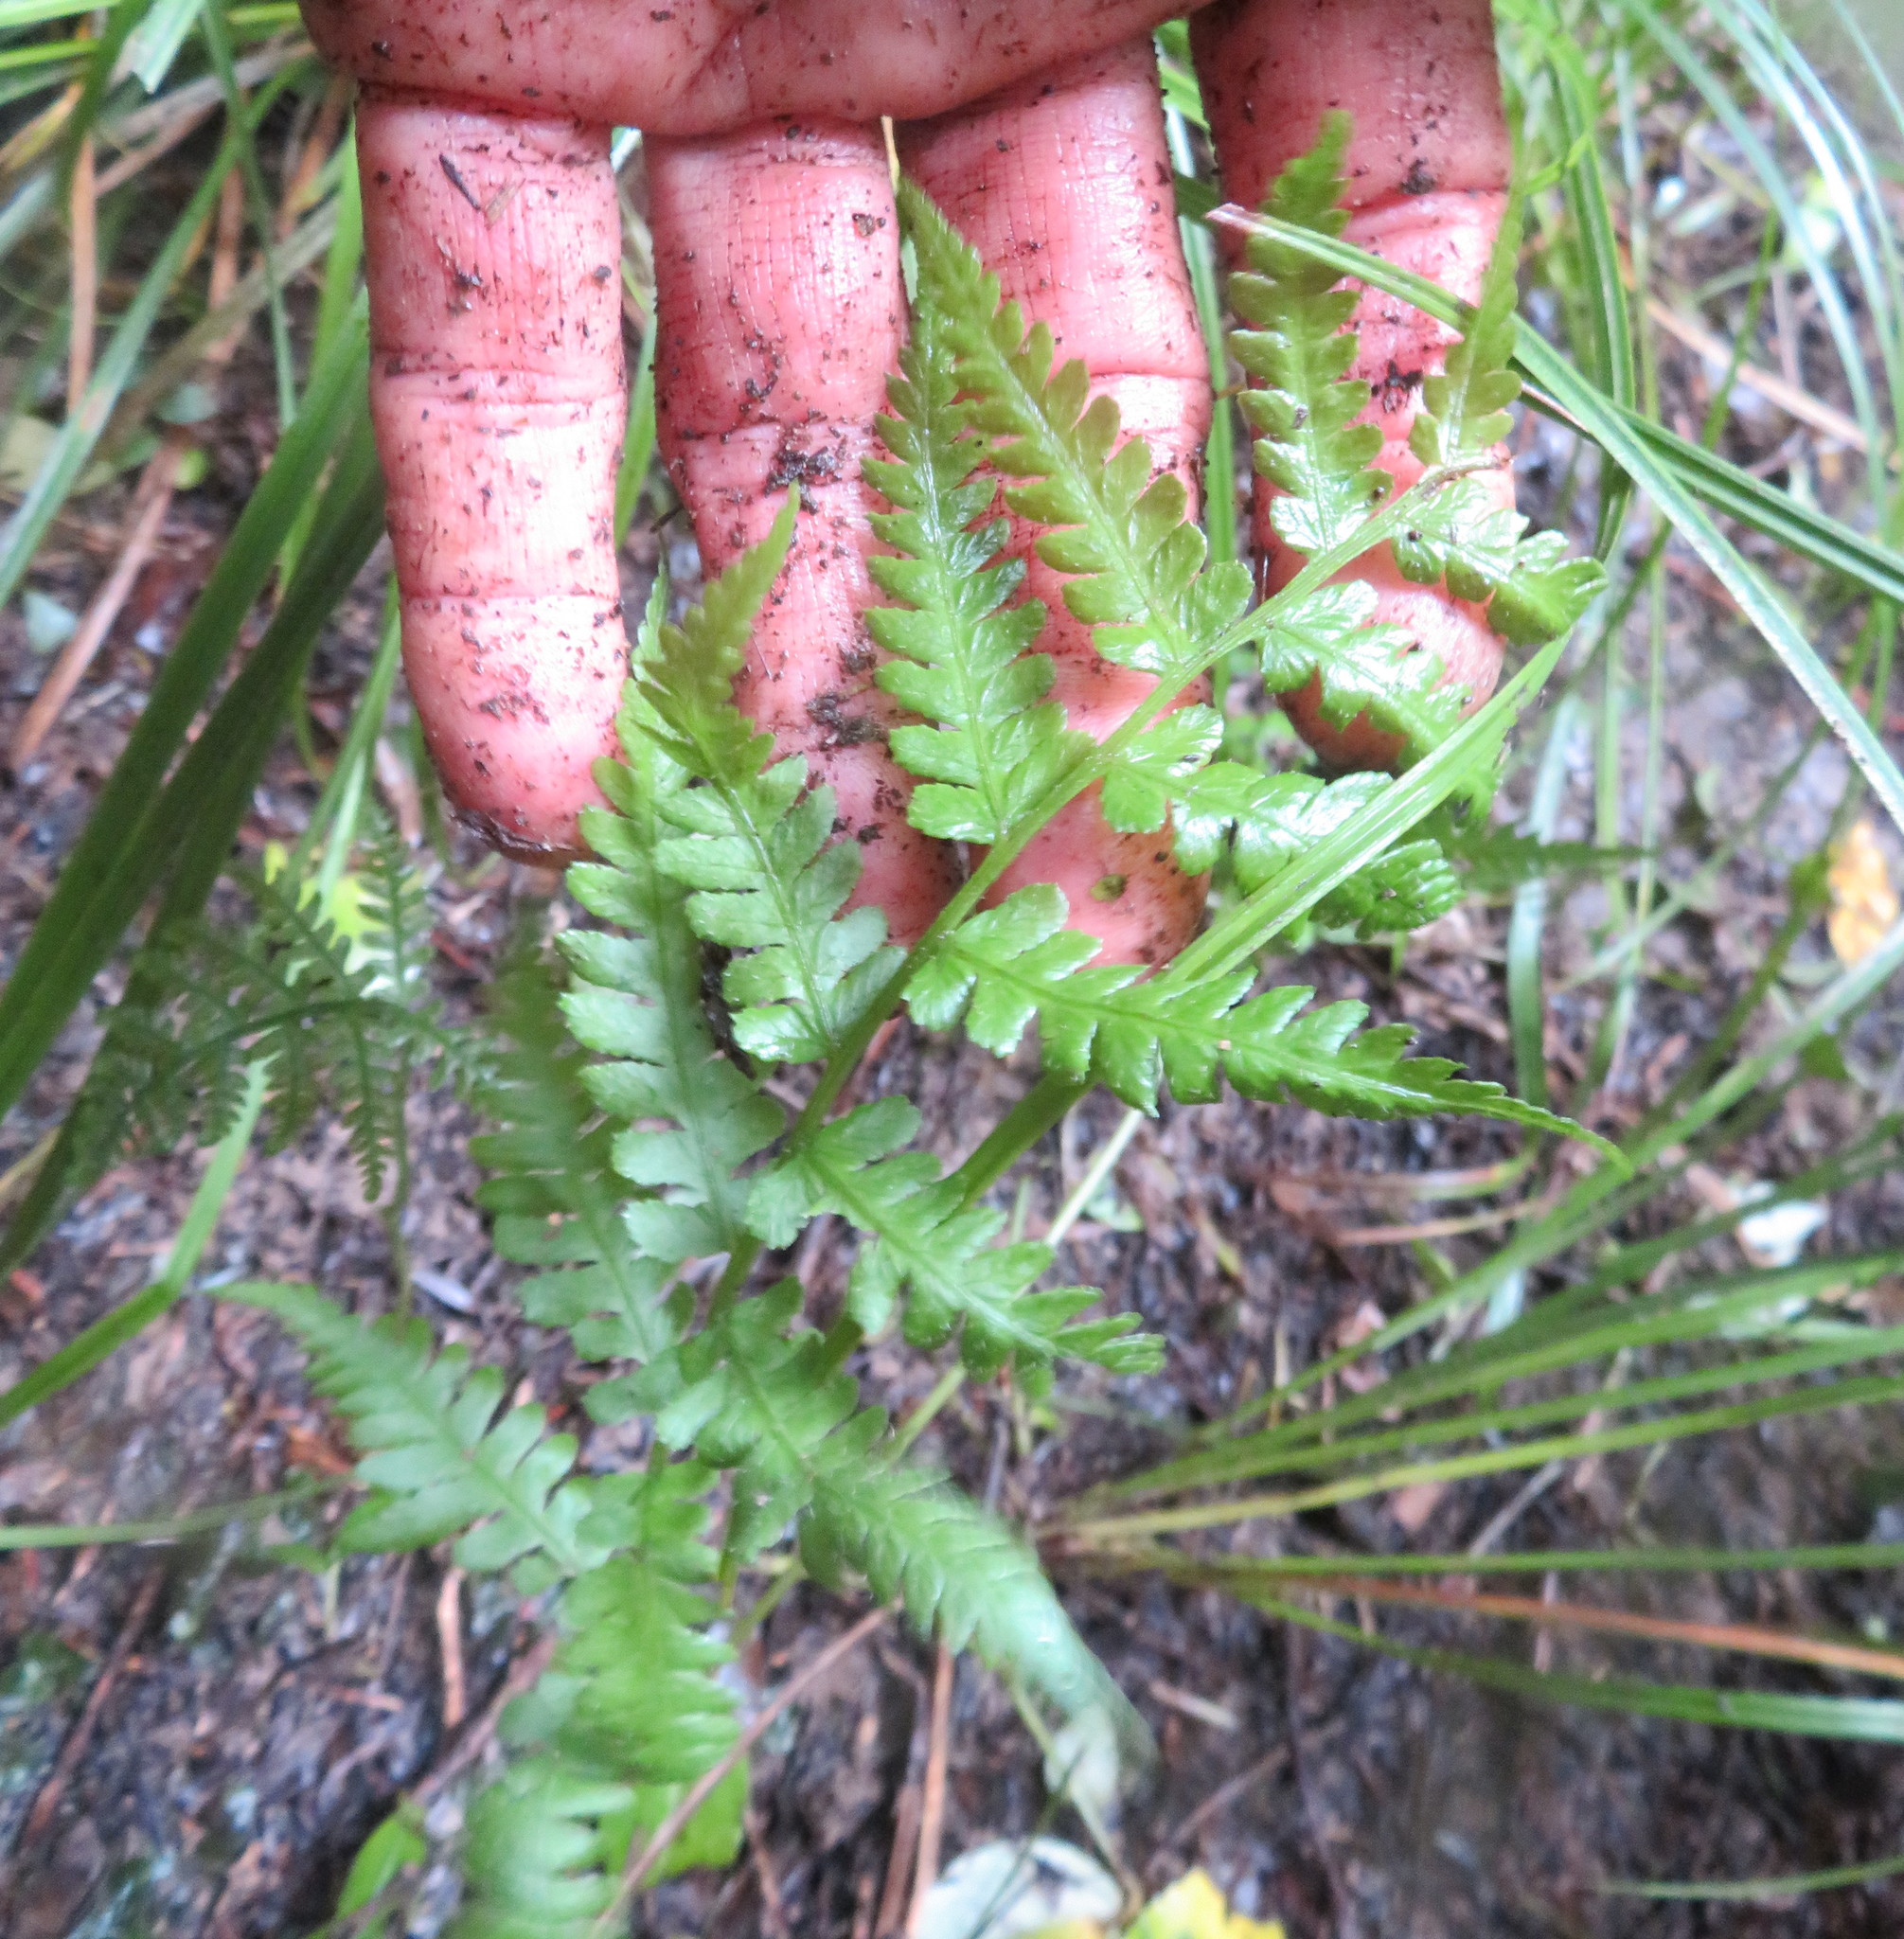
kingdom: Plantae
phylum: Tracheophyta
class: Polypodiopsida
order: Polypodiales
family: Athyriaceae
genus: Diplazium
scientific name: Diplazium congruum
